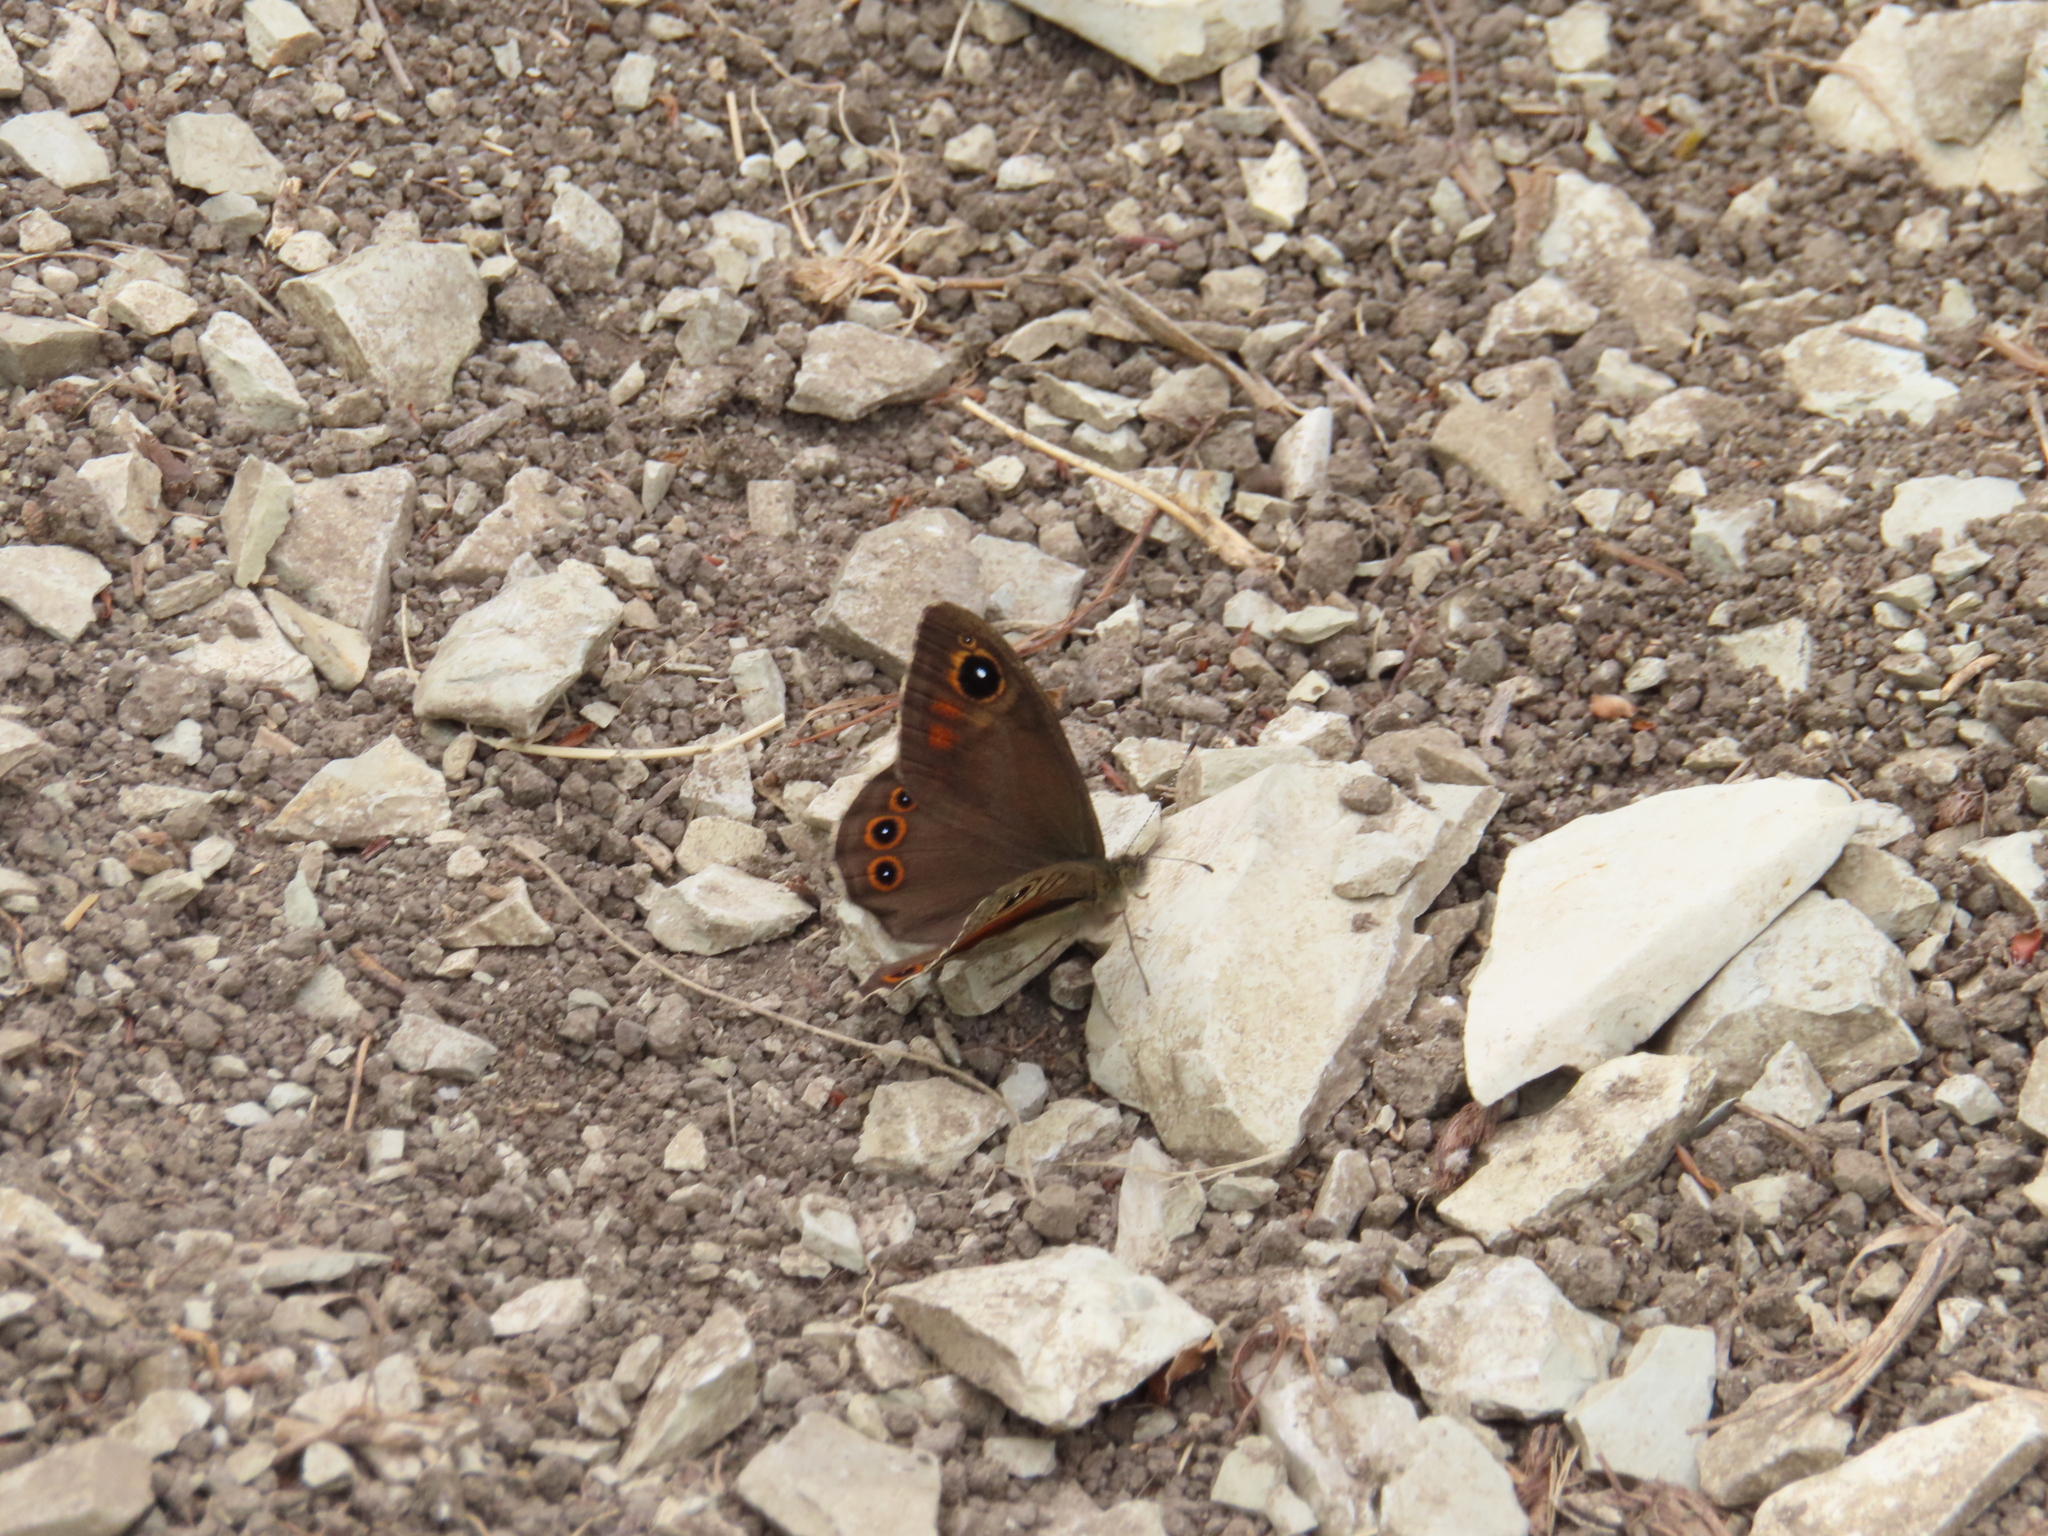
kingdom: Animalia
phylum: Arthropoda
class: Insecta
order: Lepidoptera
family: Nymphalidae
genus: Pararge
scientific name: Pararge Lasiommata maera
